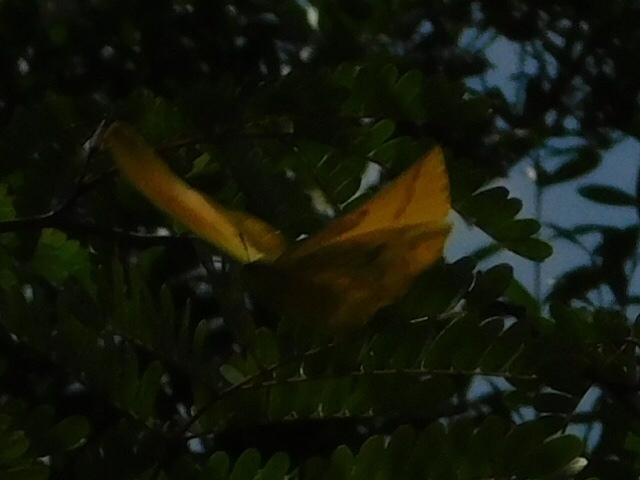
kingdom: Animalia
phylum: Arthropoda
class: Insecta
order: Lepidoptera
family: Pieridae
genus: Phoebis
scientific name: Phoebis agarithe
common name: Large orange sulphur
